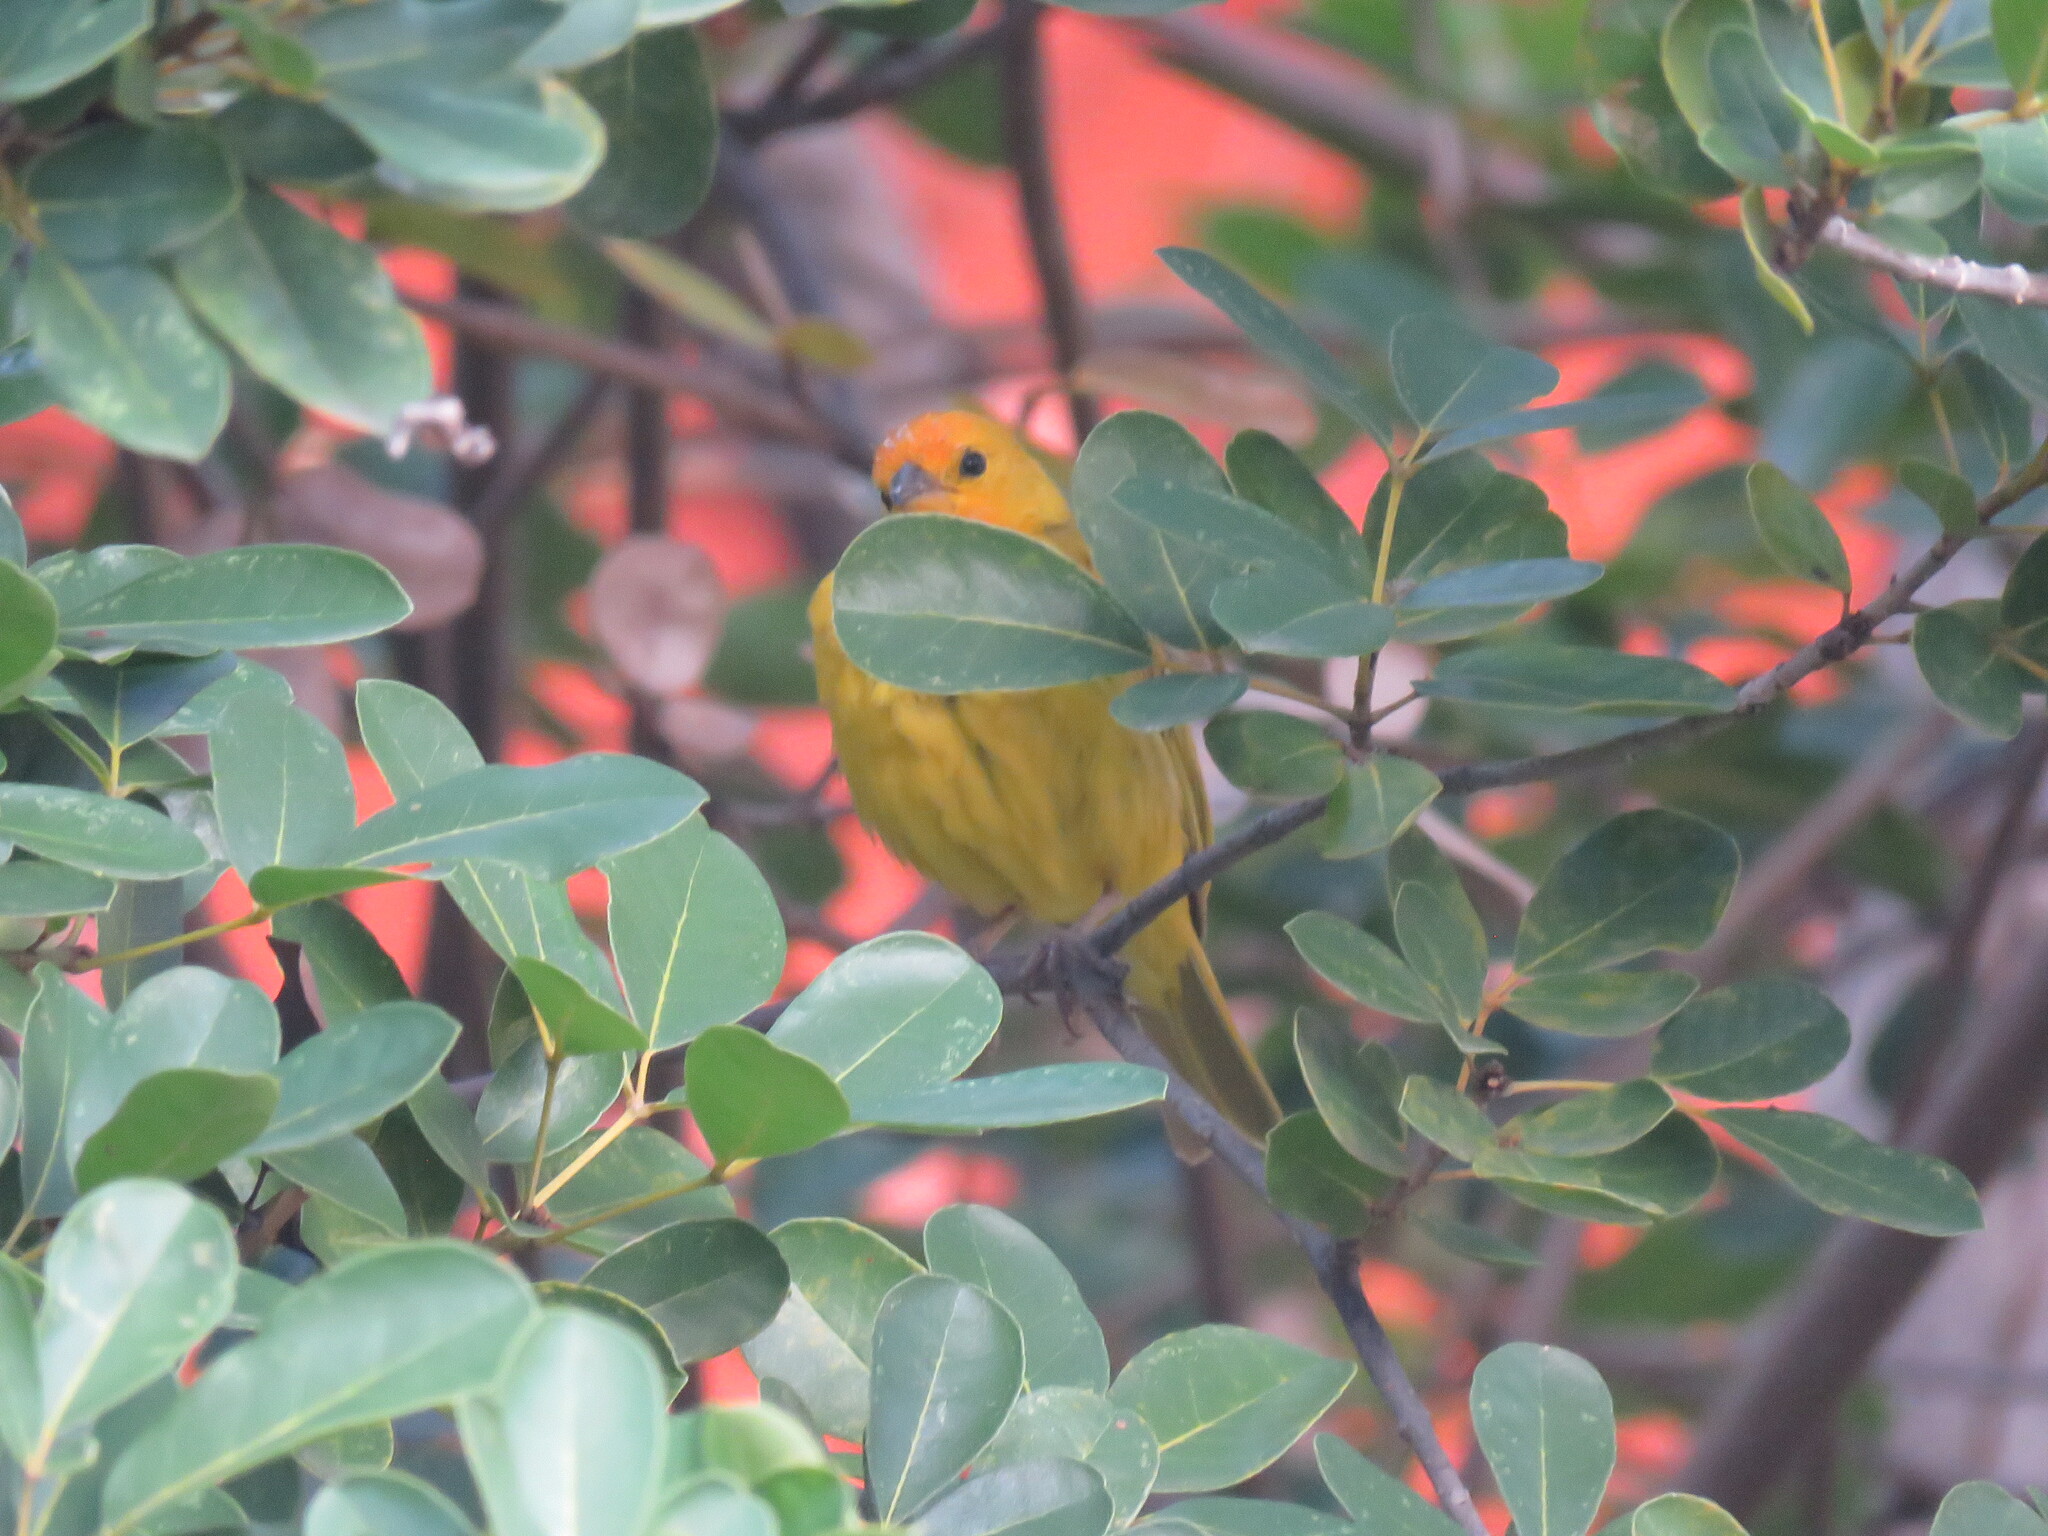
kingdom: Animalia
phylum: Chordata
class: Aves
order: Passeriformes
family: Thraupidae
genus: Sicalis
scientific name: Sicalis flaveola
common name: Saffron finch
